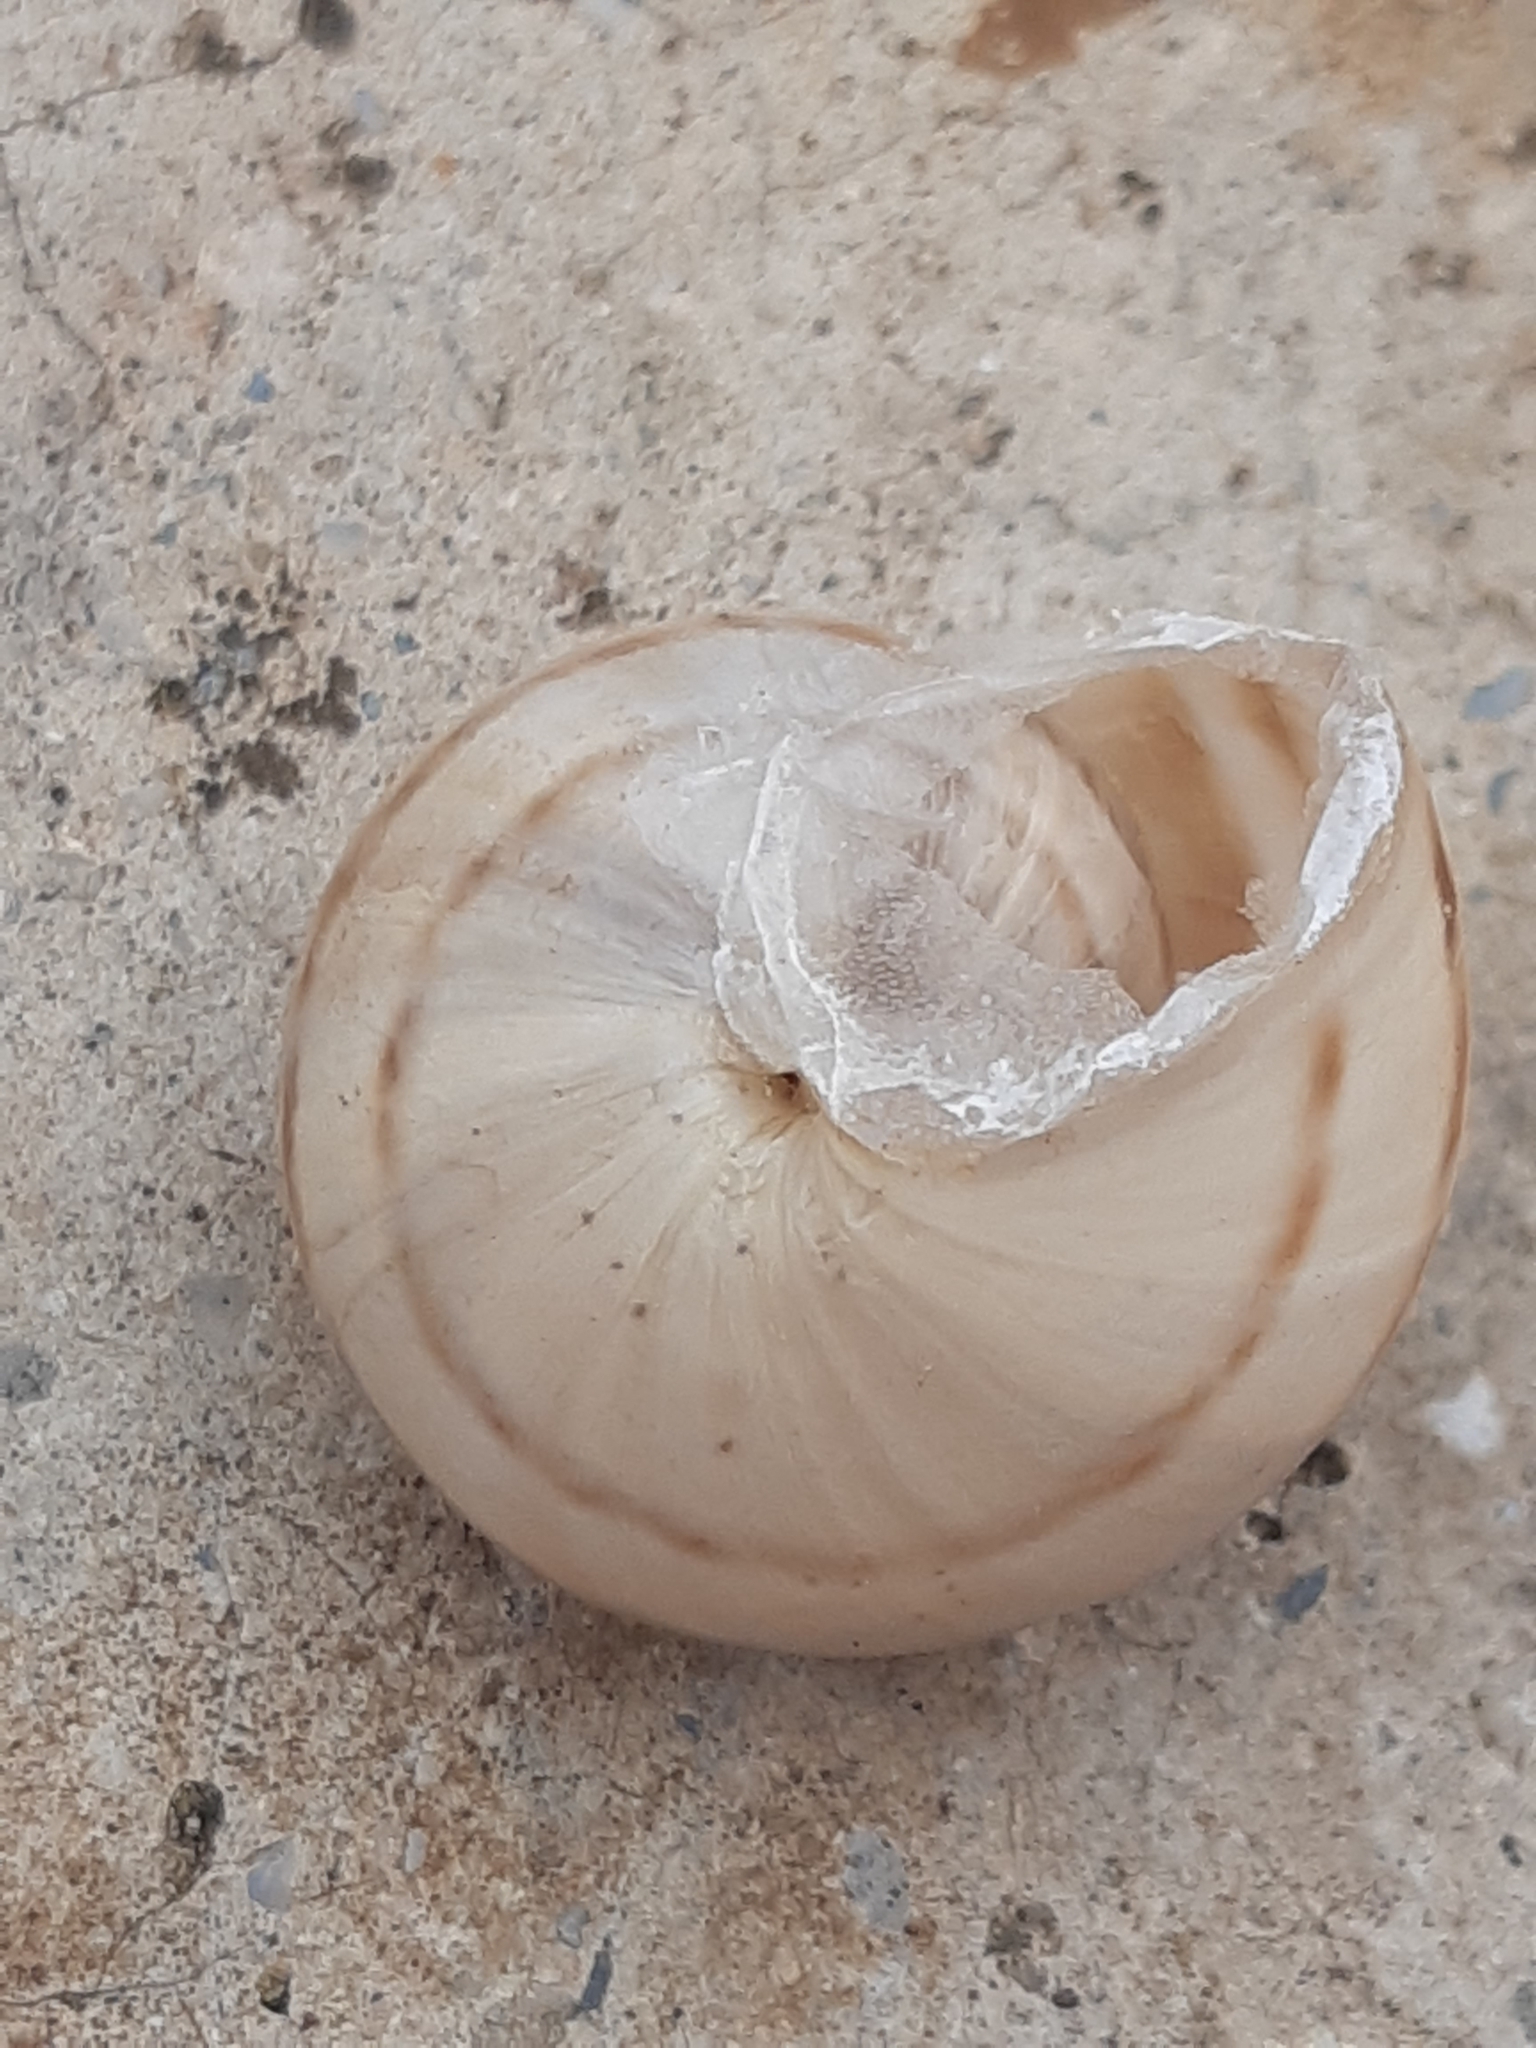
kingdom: Animalia
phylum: Mollusca
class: Gastropoda
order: Stylommatophora
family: Helicidae
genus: Eobania
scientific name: Eobania vermiculata
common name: Chocolateband snail
